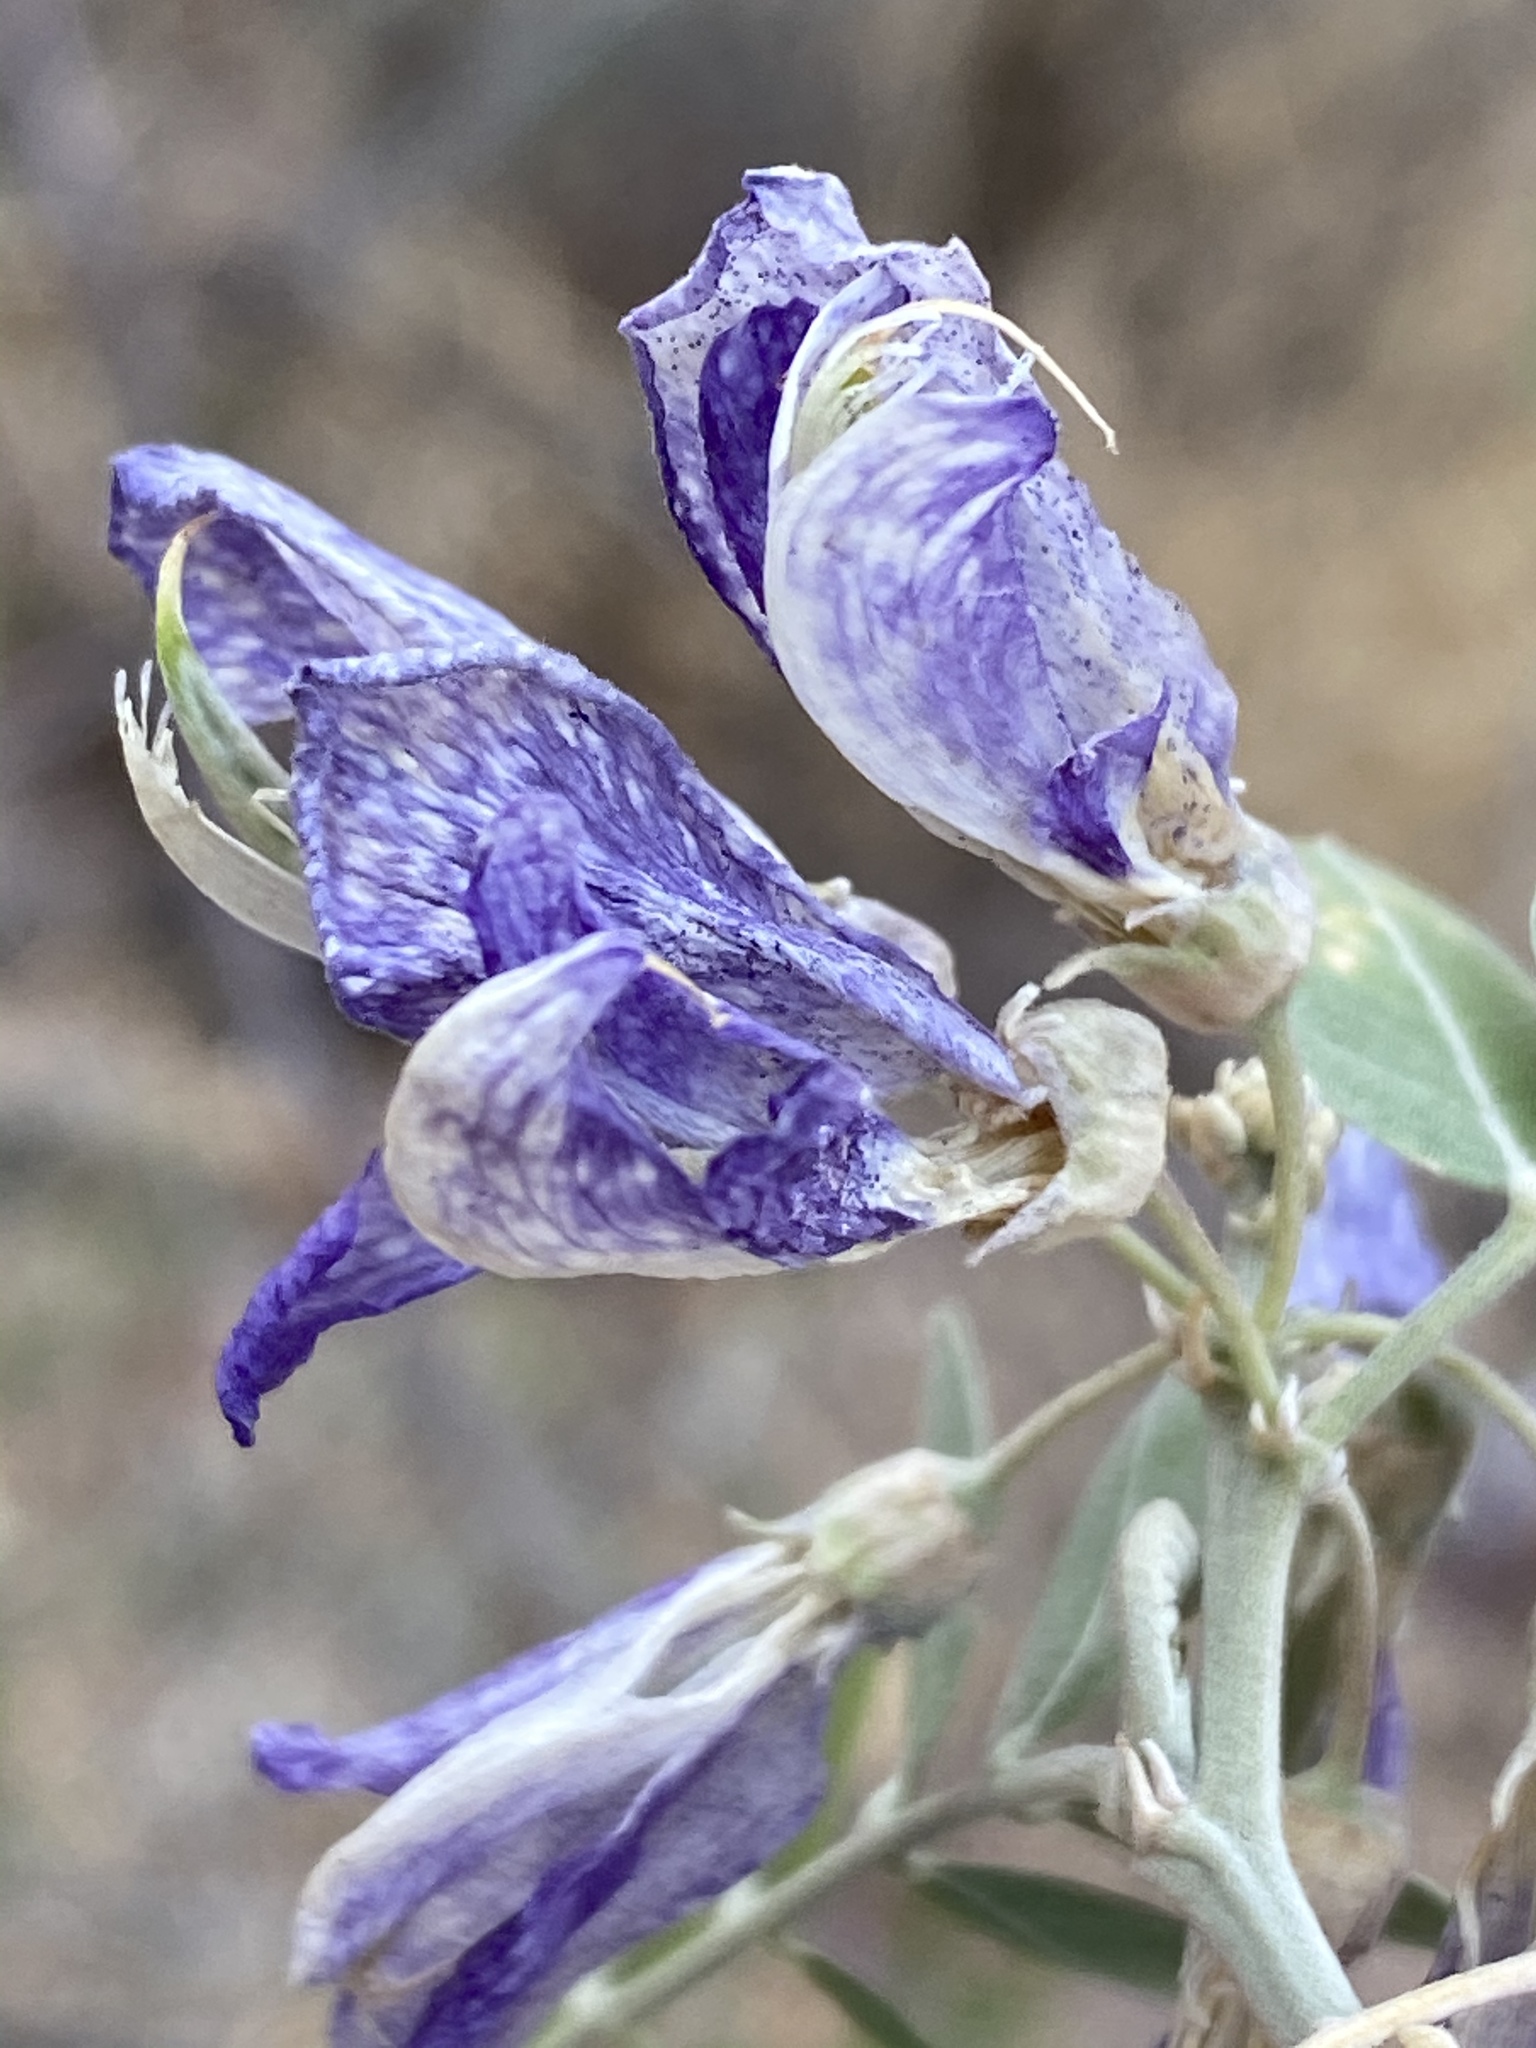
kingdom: Plantae
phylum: Tracheophyta
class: Magnoliopsida
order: Fabales
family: Fabaceae
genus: Mundulea
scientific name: Mundulea sericea
